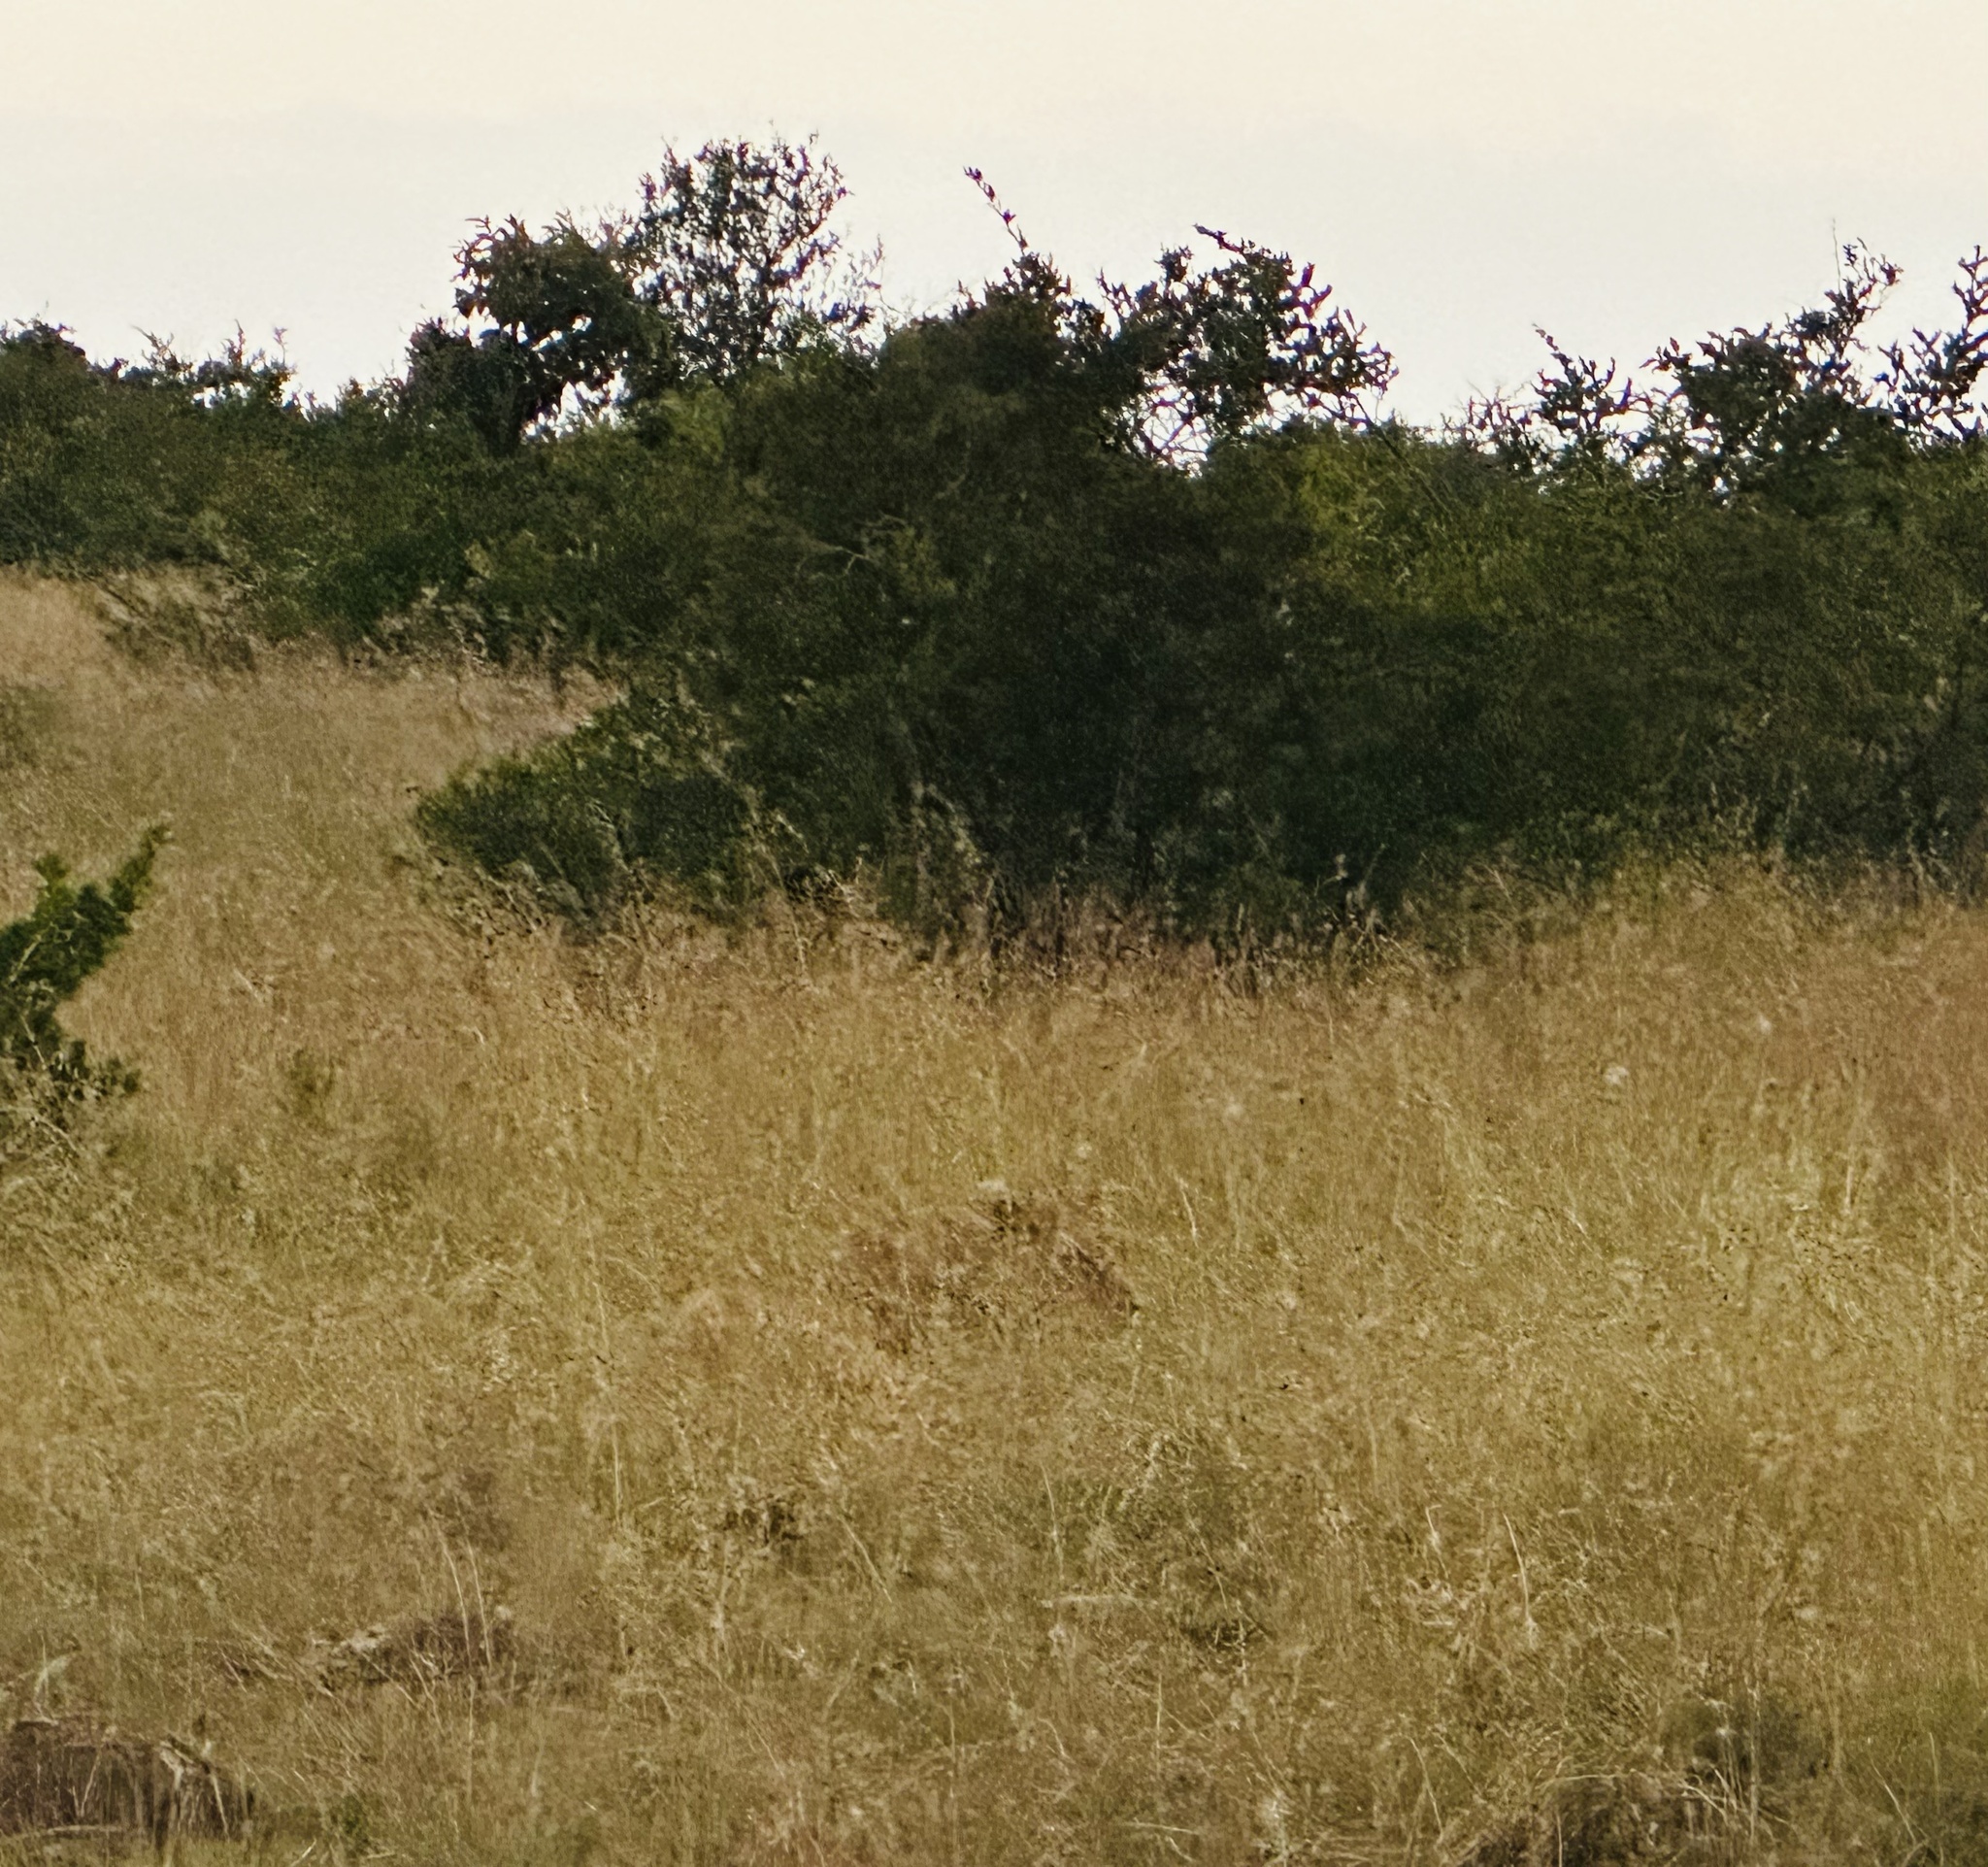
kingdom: Animalia
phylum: Chordata
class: Mammalia
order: Carnivora
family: Felidae
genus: Panthera
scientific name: Panthera leo
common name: Lion
